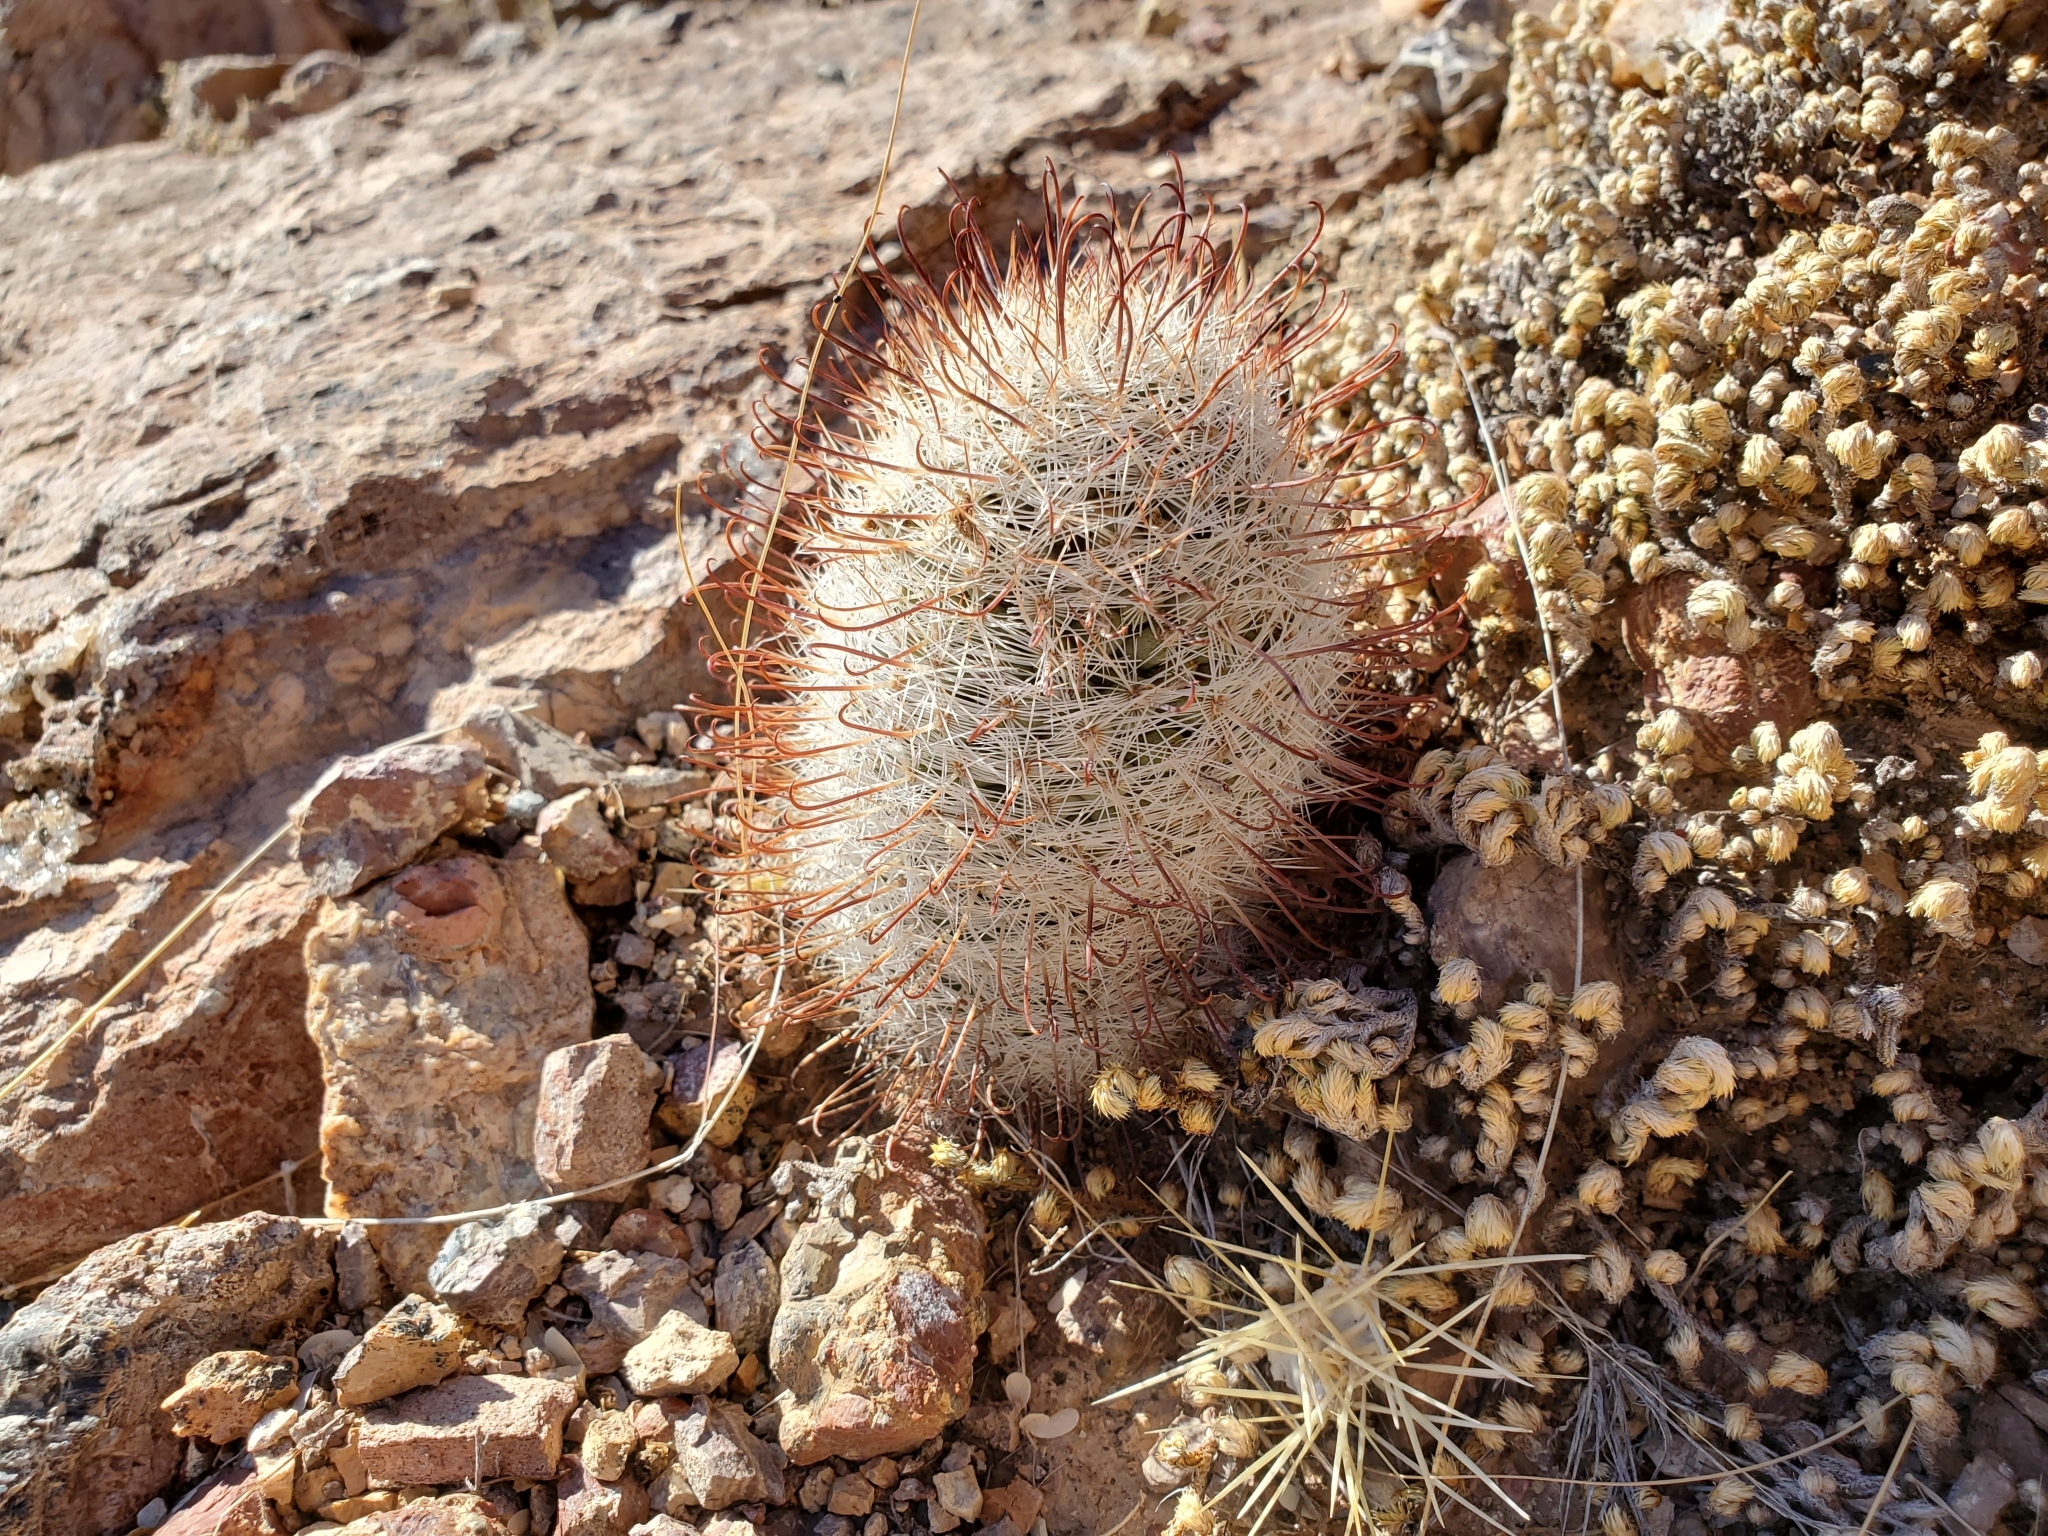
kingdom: Plantae
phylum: Tracheophyta
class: Magnoliopsida
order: Caryophyllales
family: Cactaceae
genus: Cochemiea
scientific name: Cochemiea grahamii
